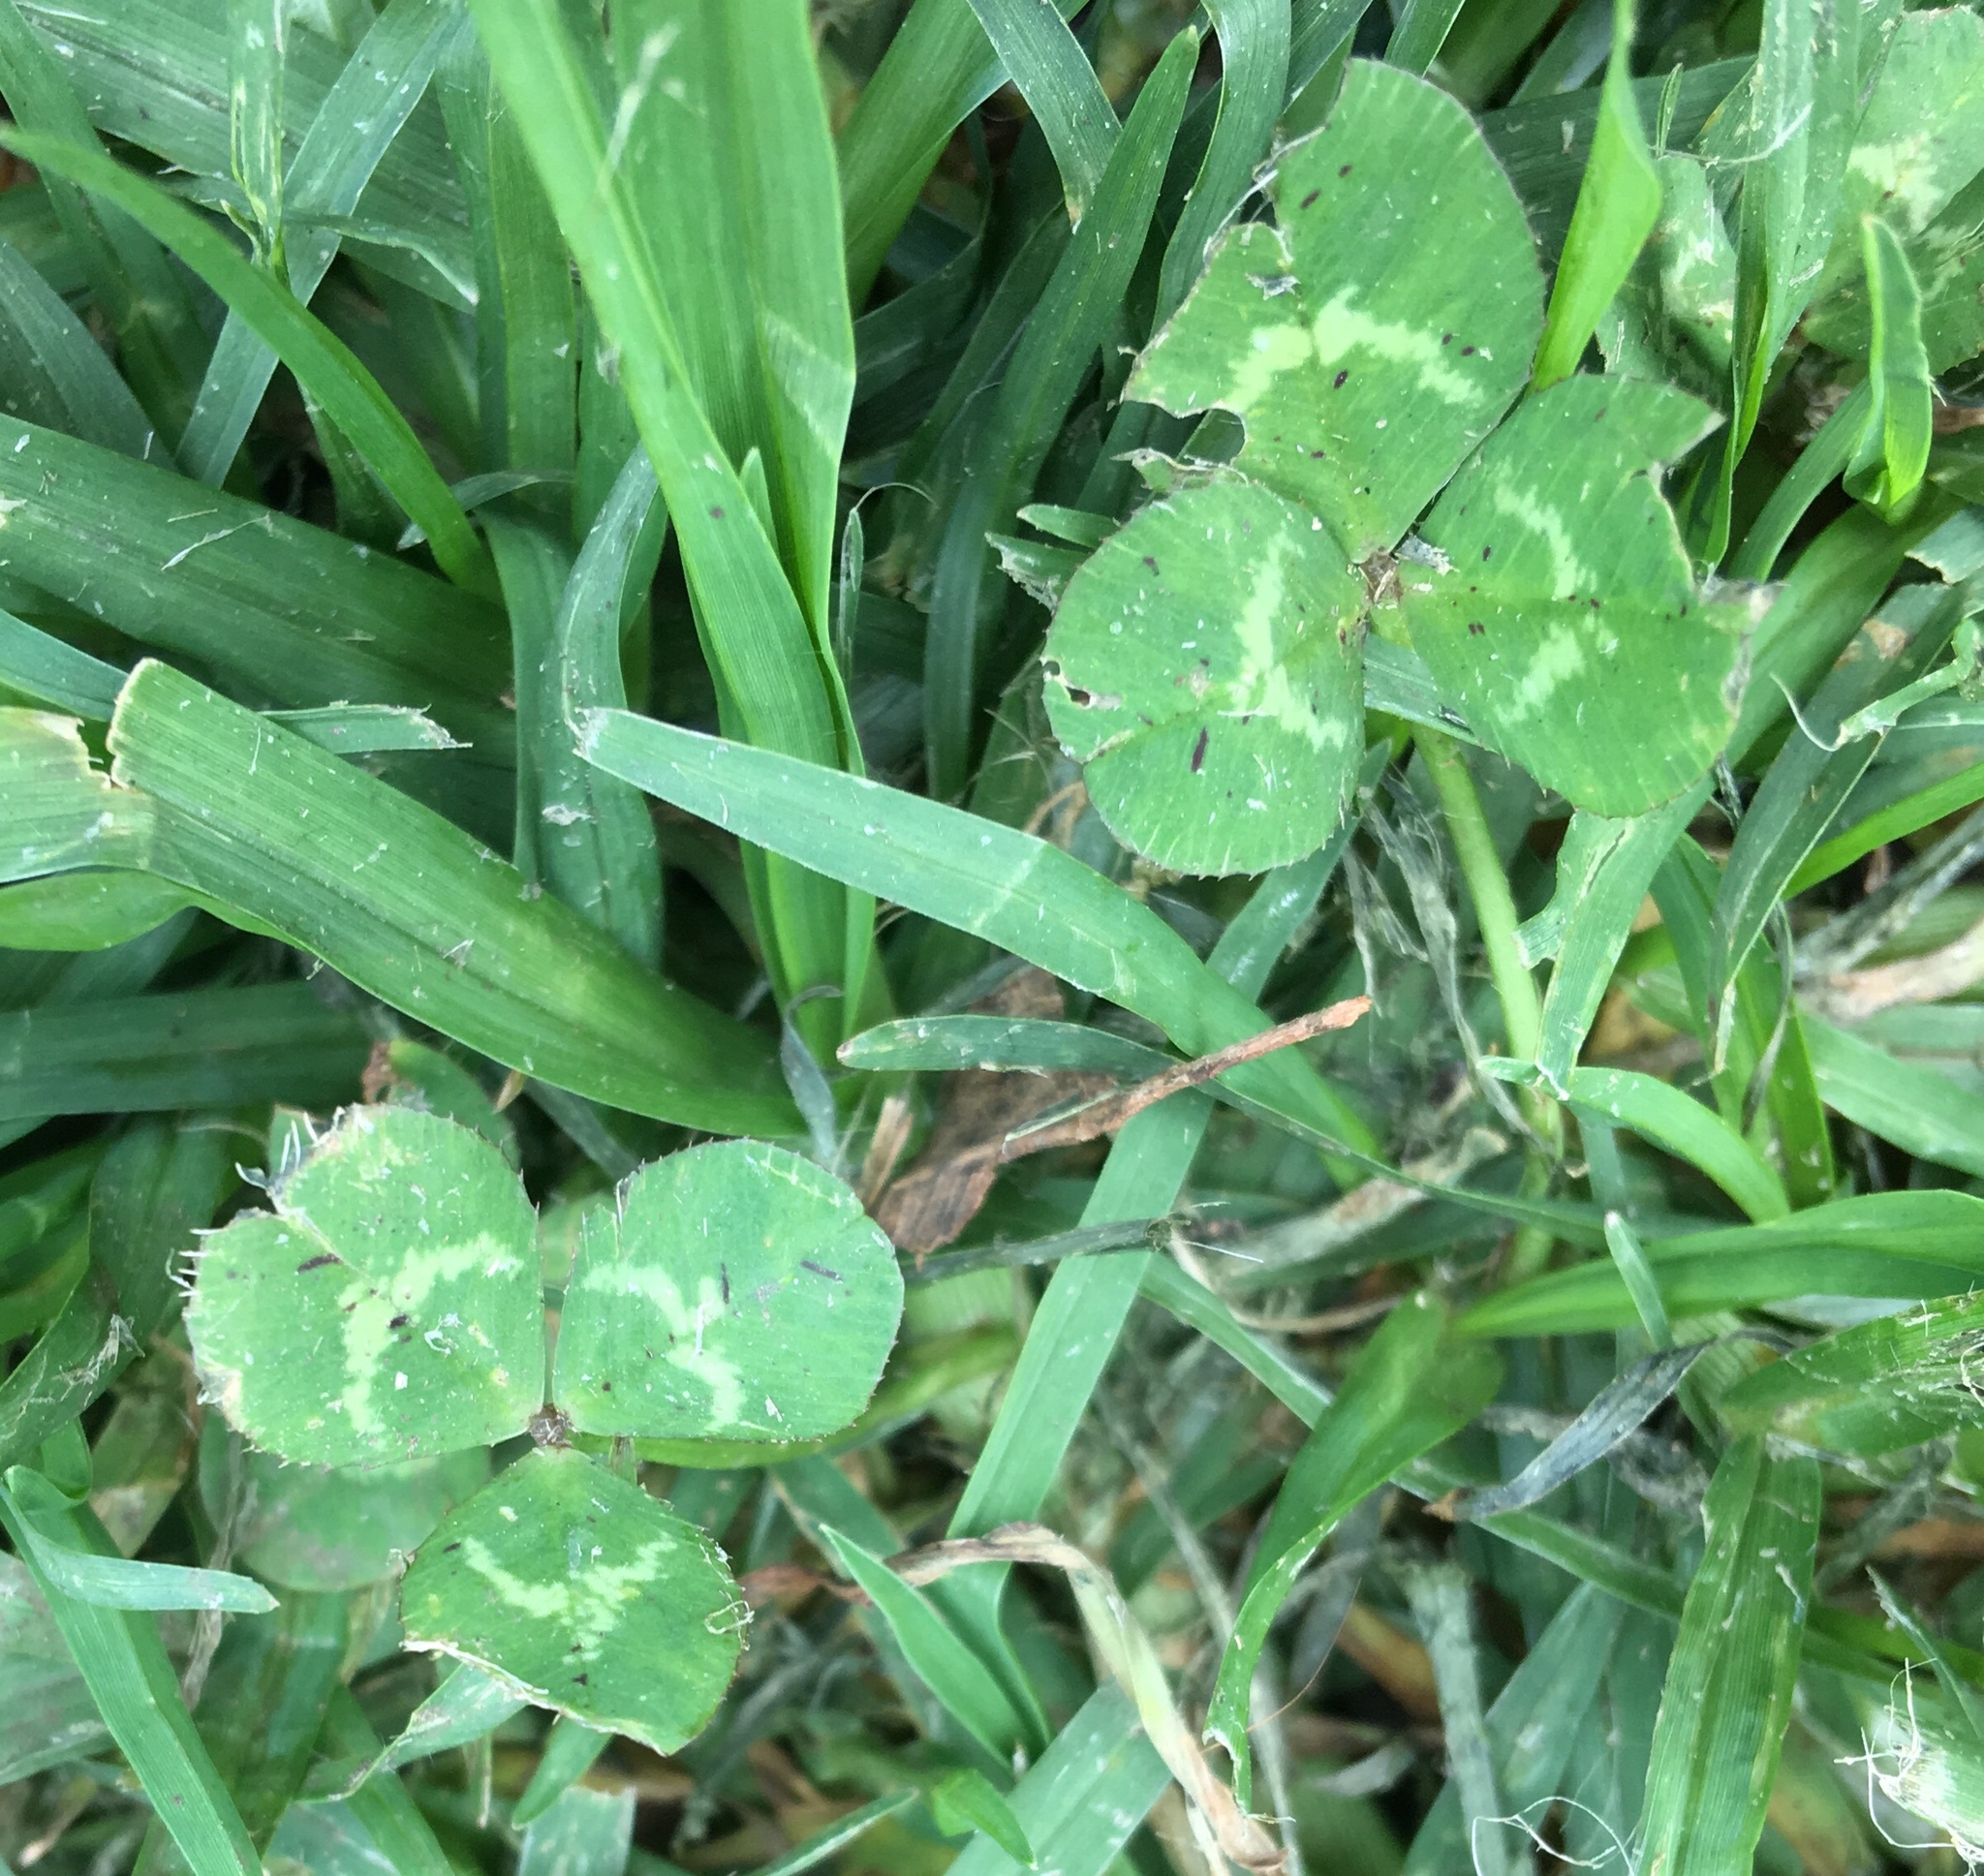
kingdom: Plantae
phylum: Tracheophyta
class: Magnoliopsida
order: Fabales
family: Fabaceae
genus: Trifolium
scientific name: Trifolium repens
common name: White clover
